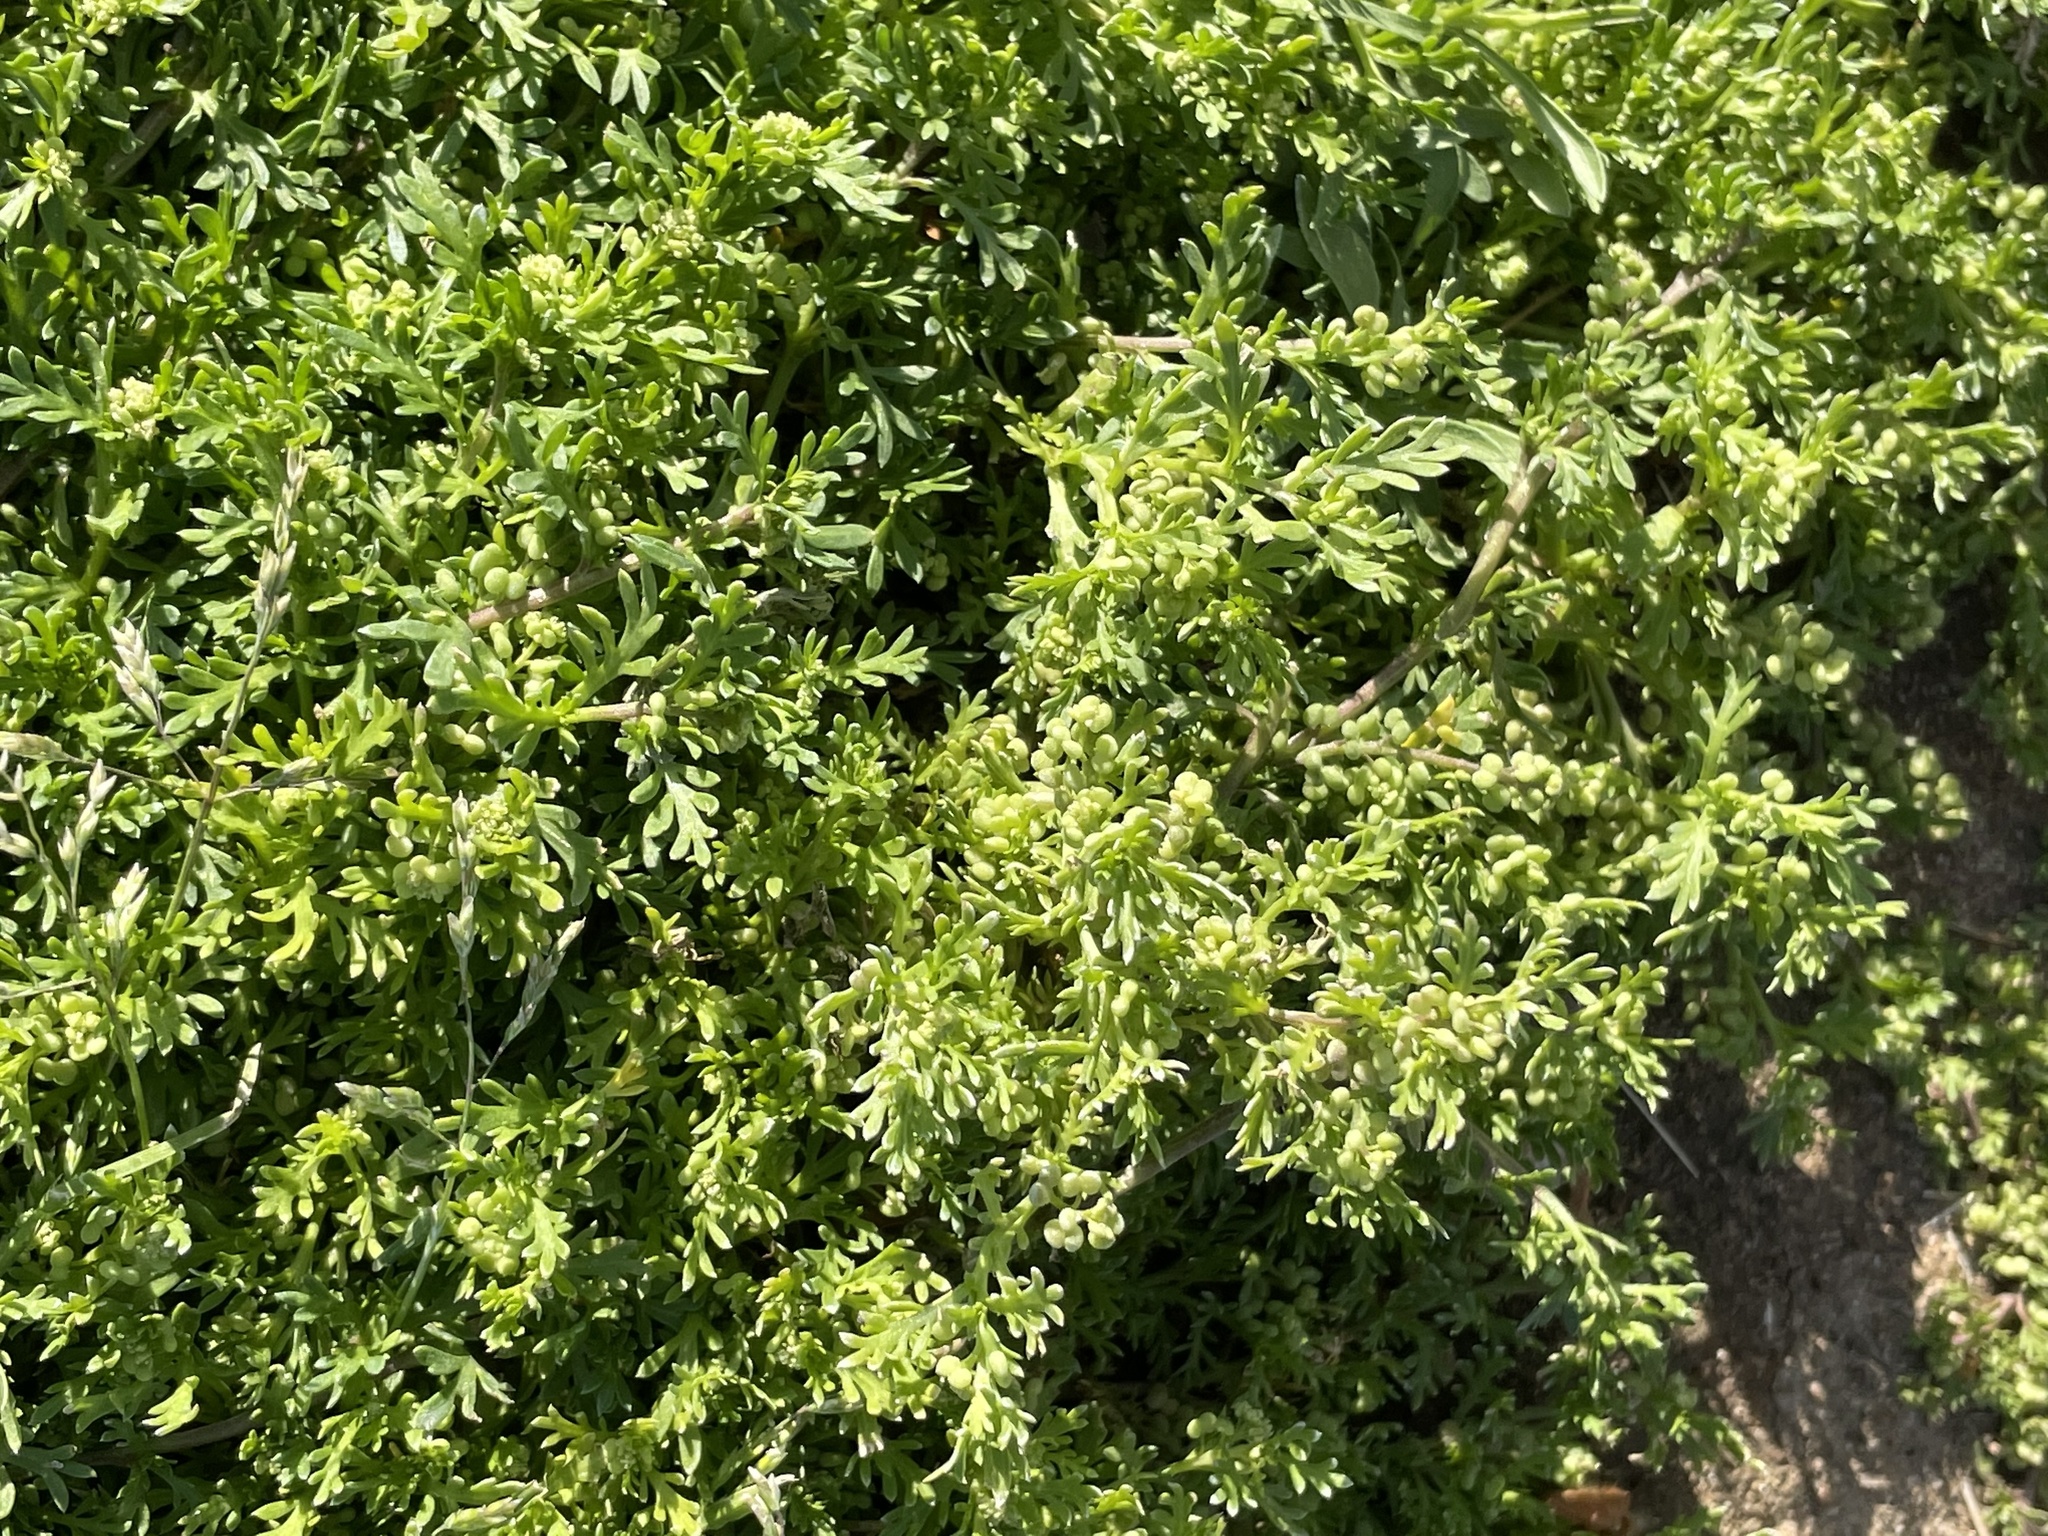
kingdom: Plantae
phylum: Tracheophyta
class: Magnoliopsida
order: Brassicales
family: Brassicaceae
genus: Lepidium
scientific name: Lepidium didymum
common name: Lesser swinecress
